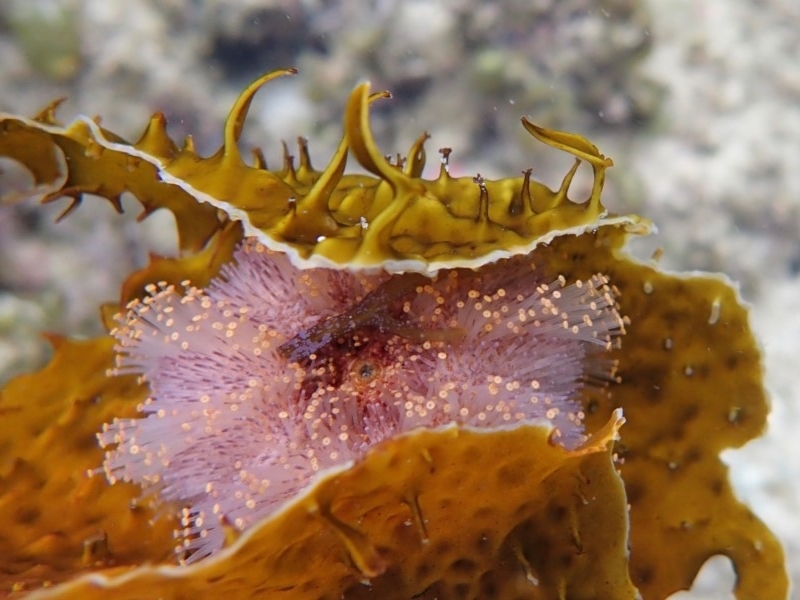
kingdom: Animalia
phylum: Echinodermata
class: Echinoidea
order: Camarodonta
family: Temnopleuridae
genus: Holopneustes
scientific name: Holopneustes purpurascens
